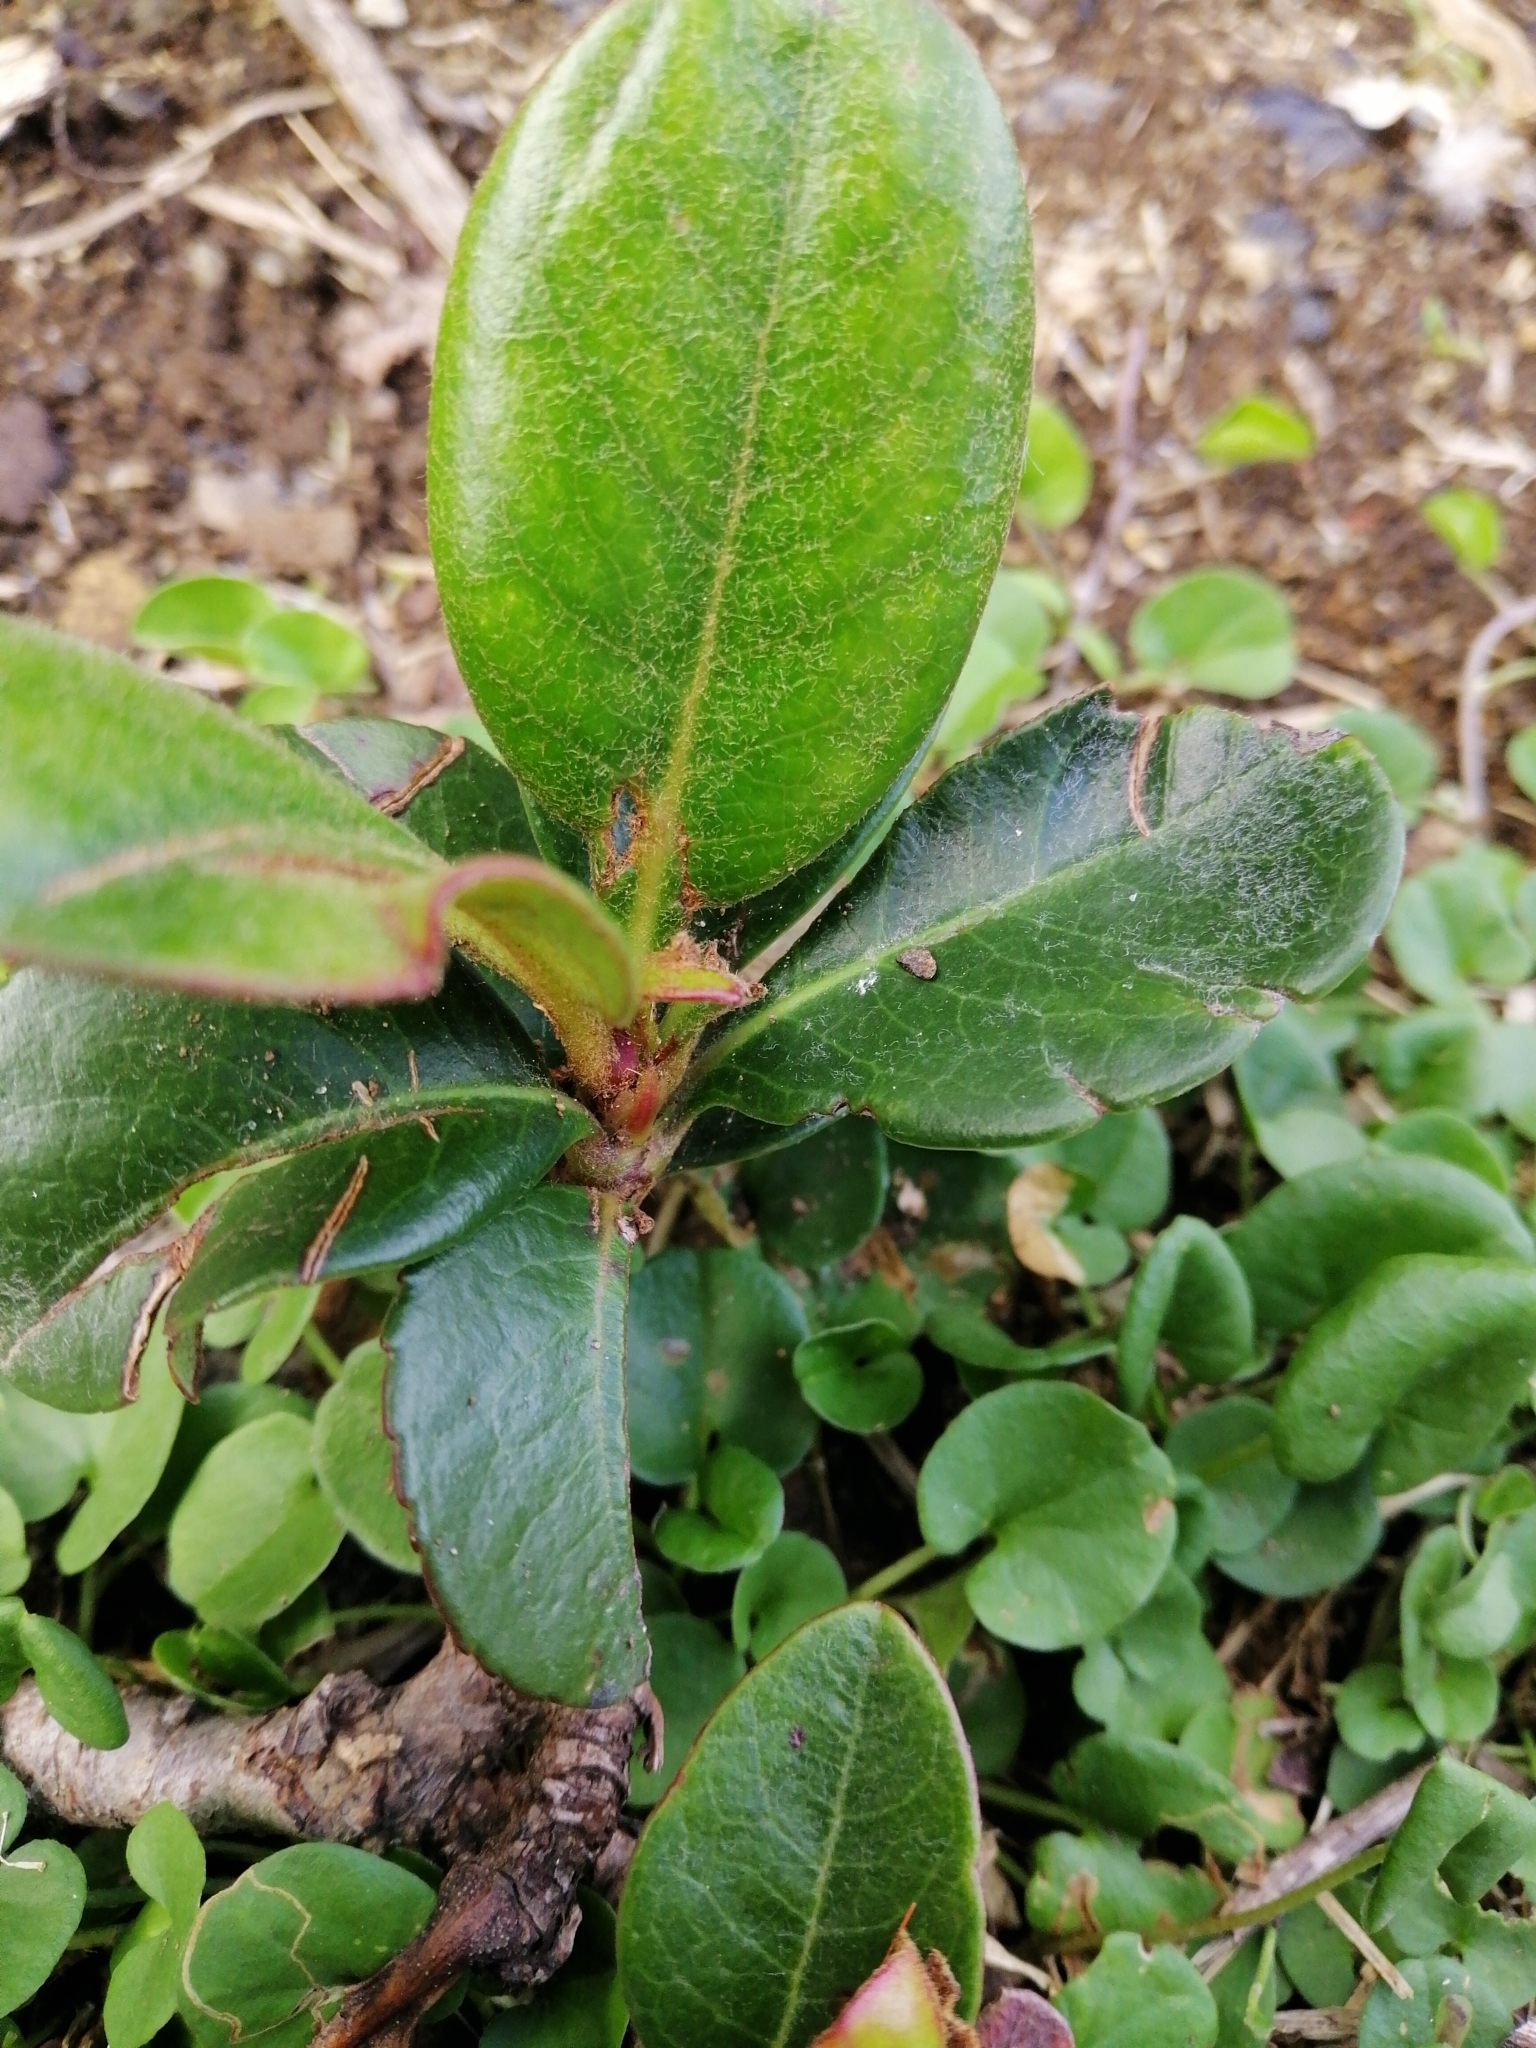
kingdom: Plantae
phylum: Tracheophyta
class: Magnoliopsida
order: Rosales
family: Rosaceae
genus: Rhaphiolepis
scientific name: Rhaphiolepis indica
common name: India-hawthorn
